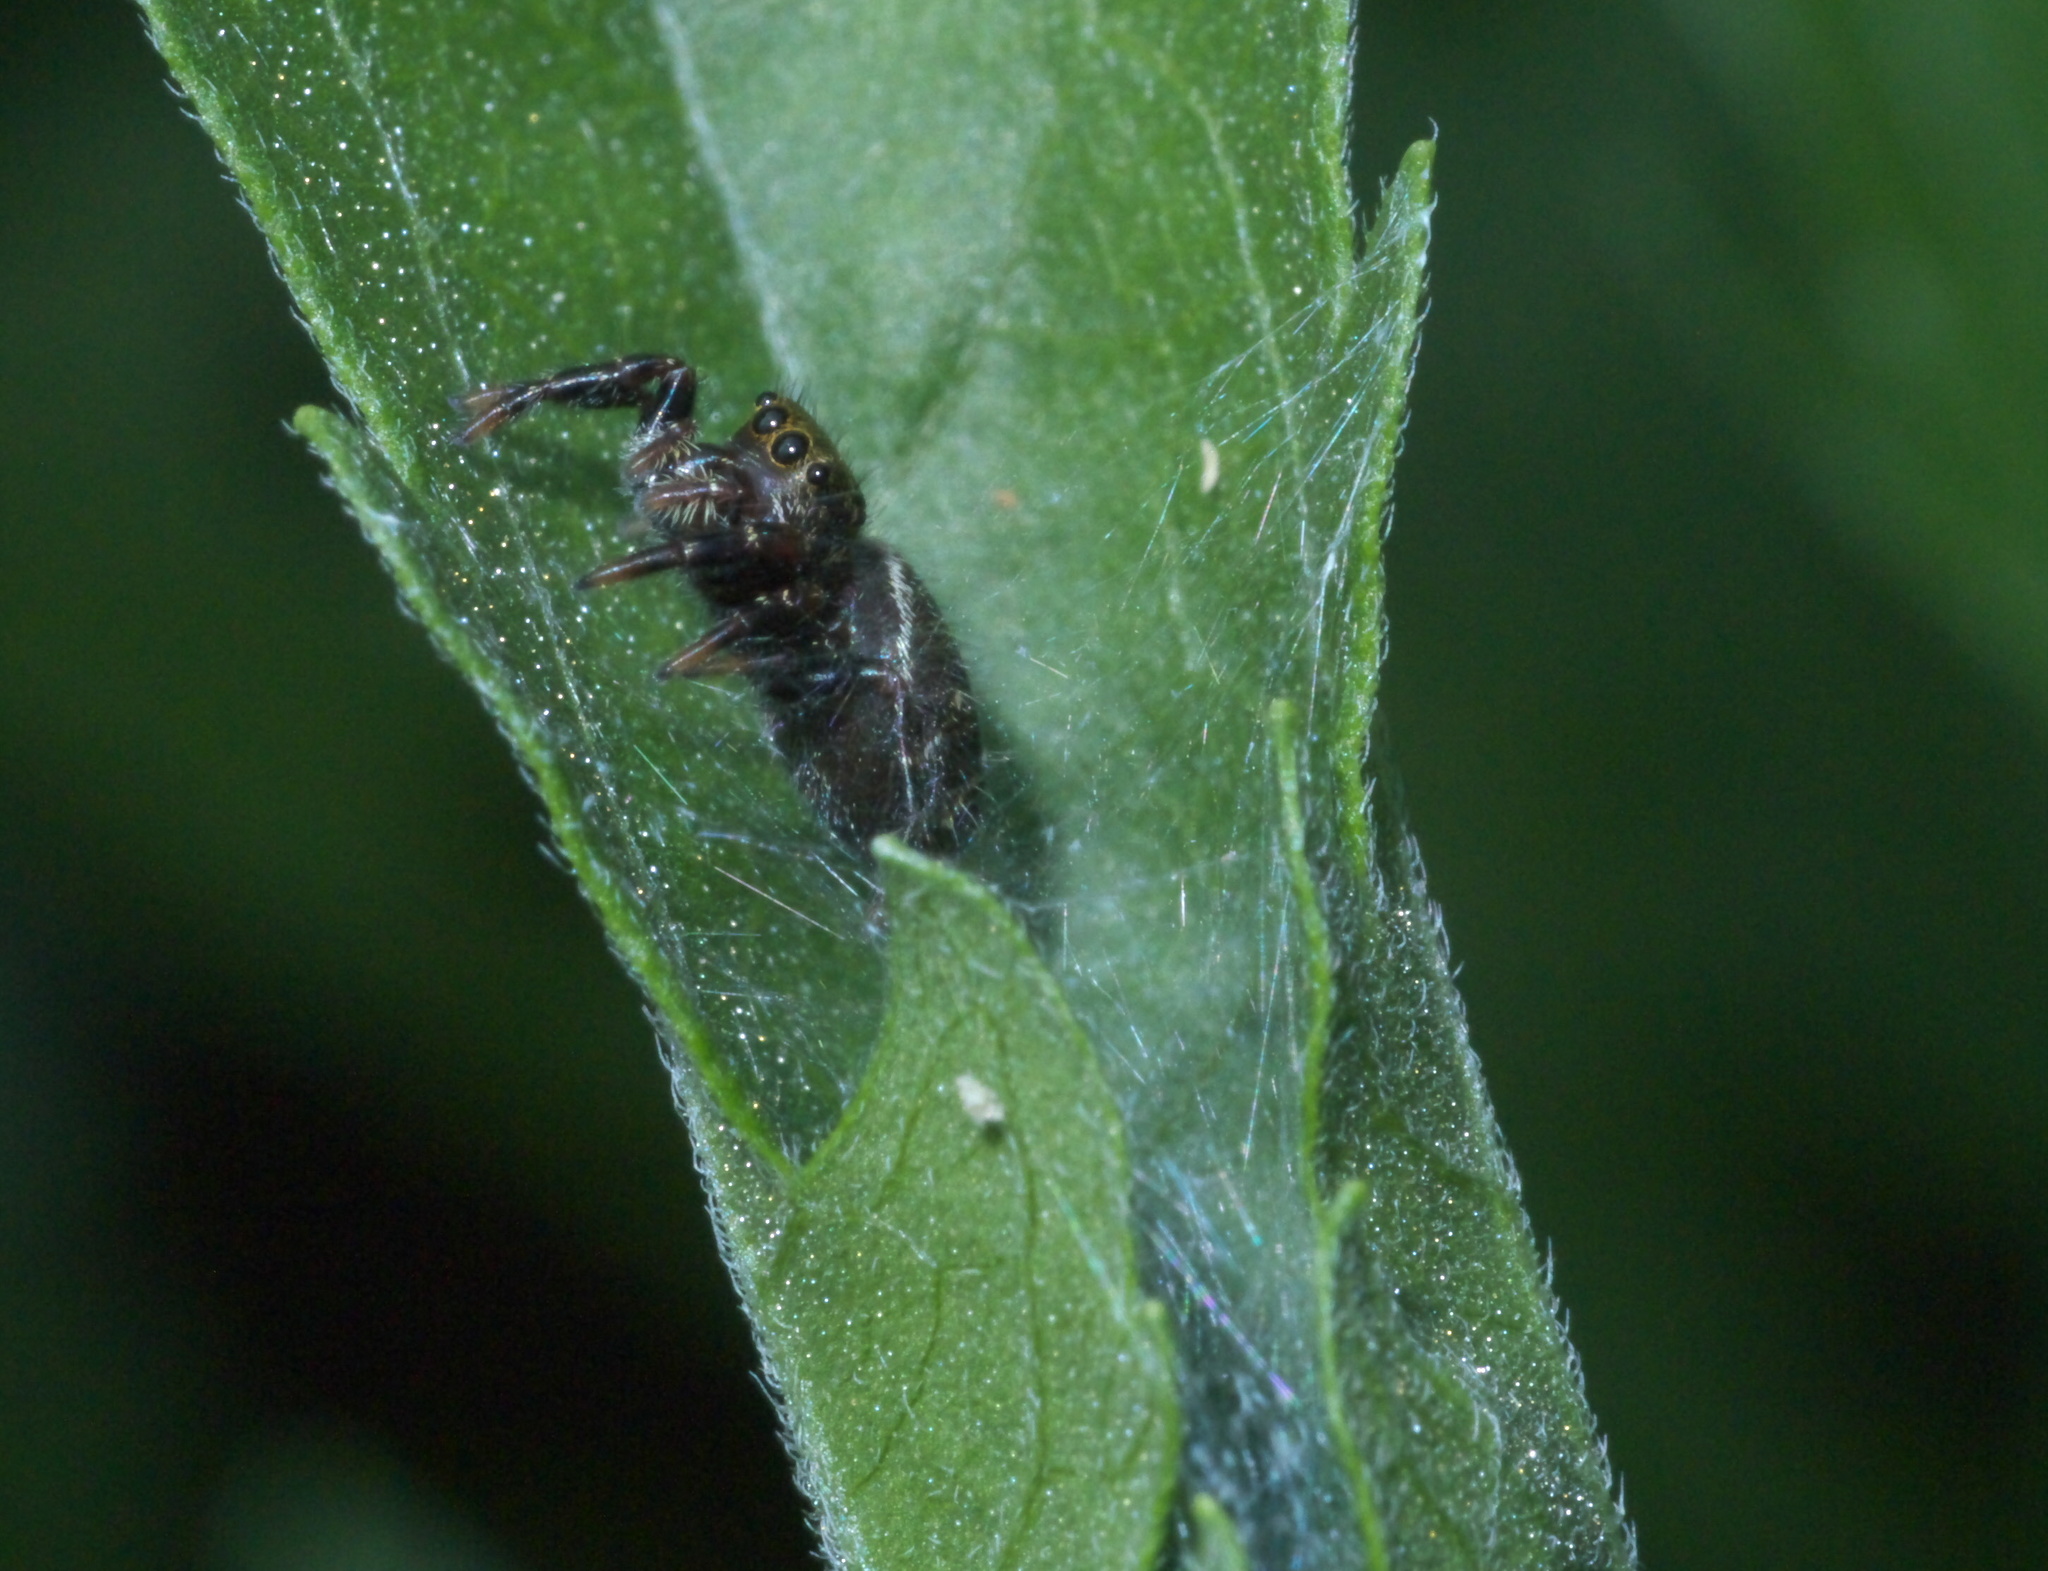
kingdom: Animalia
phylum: Arthropoda
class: Arachnida
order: Araneae
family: Salticidae
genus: Phidippus
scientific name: Phidippus audax
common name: Bold jumper
